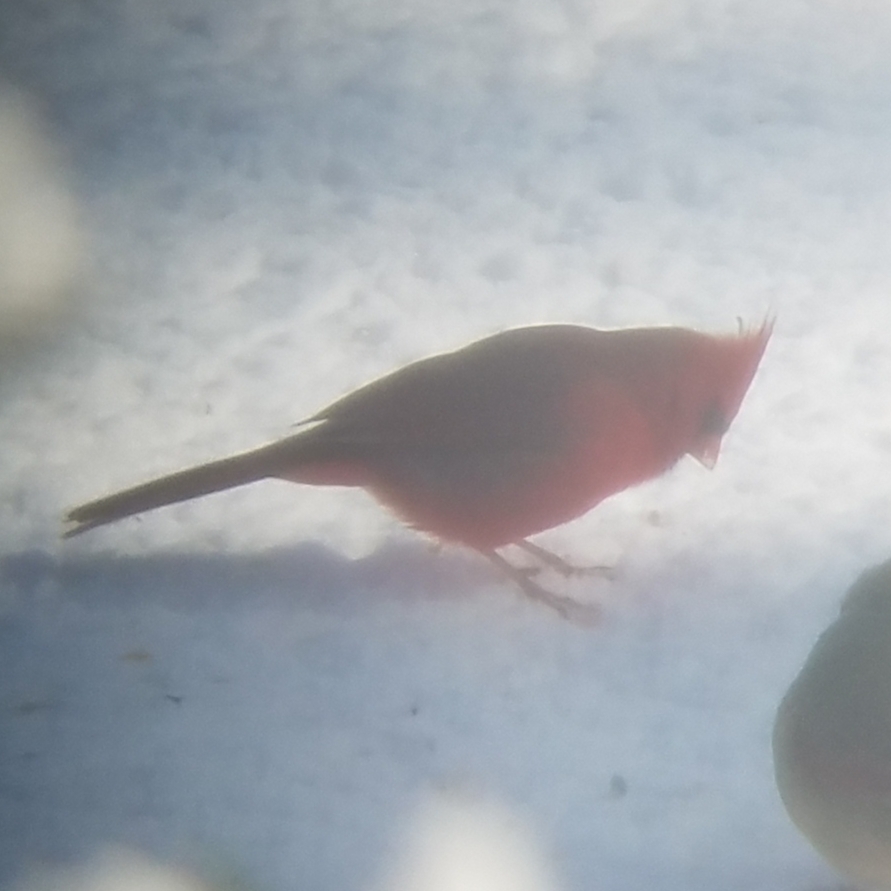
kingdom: Animalia
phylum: Chordata
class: Aves
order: Passeriformes
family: Cardinalidae
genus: Cardinalis
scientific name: Cardinalis cardinalis
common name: Northern cardinal
